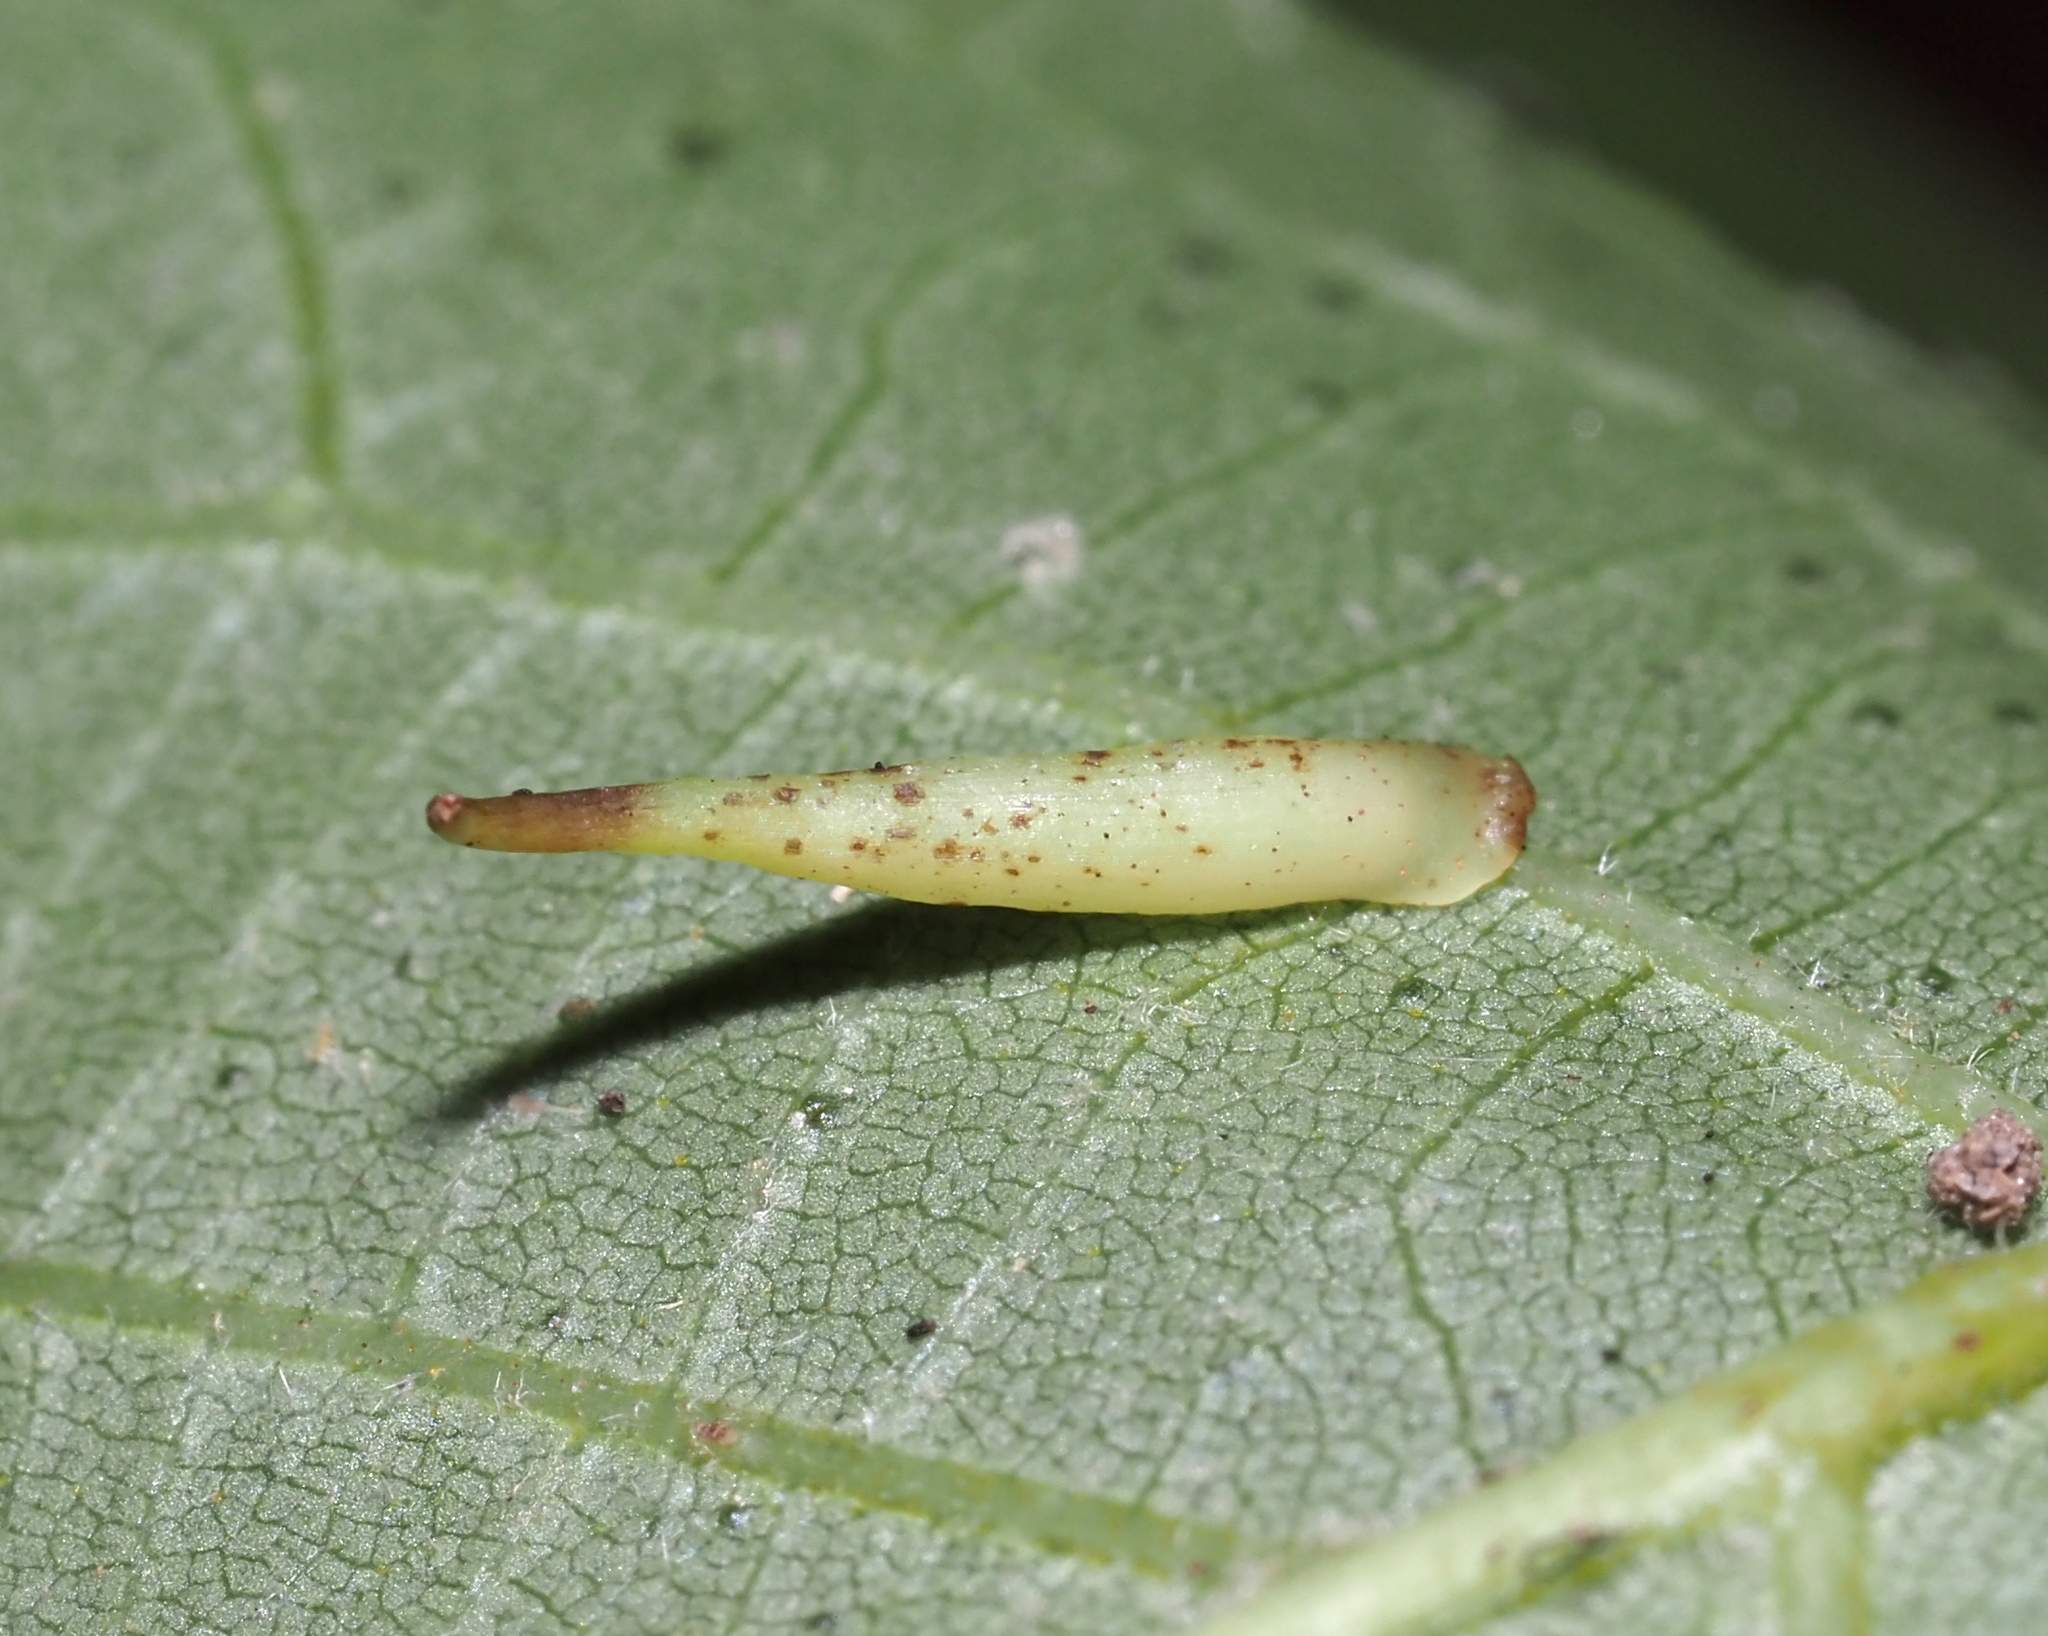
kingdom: Animalia
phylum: Arthropoda
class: Insecta
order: Diptera
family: Cecidomyiidae
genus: Caryomyia
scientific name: Caryomyia
